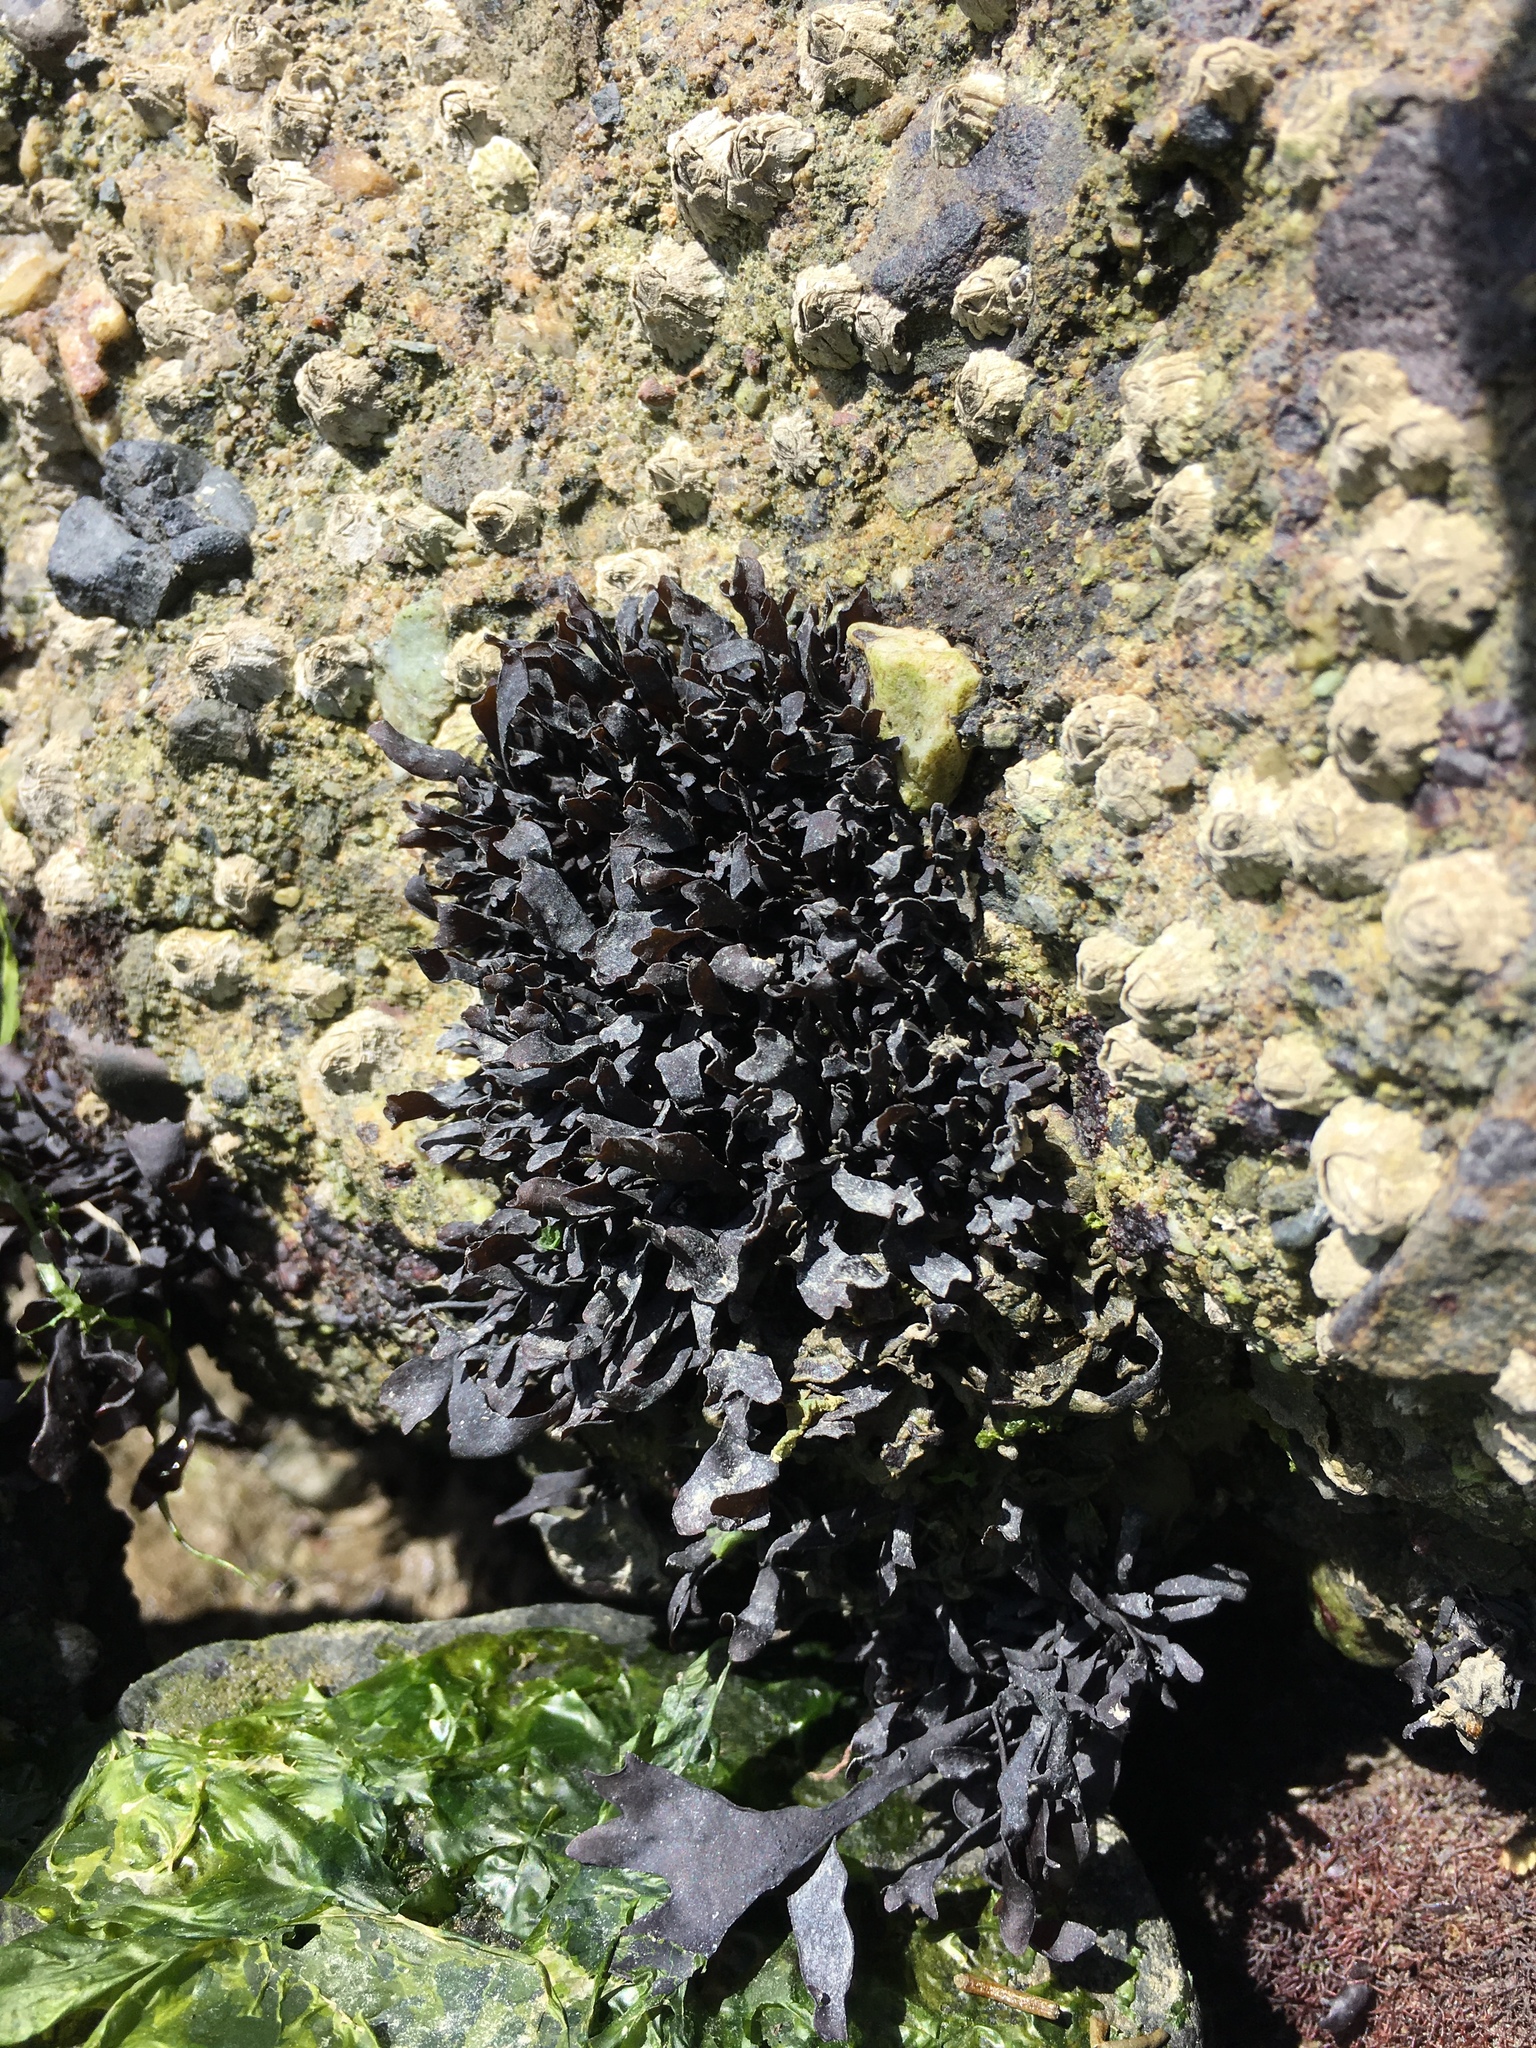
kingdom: Plantae
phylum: Rhodophyta
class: Florideophyceae
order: Gigartinales
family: Phyllophoraceae
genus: Mastocarpus
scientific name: Mastocarpus papillatus
